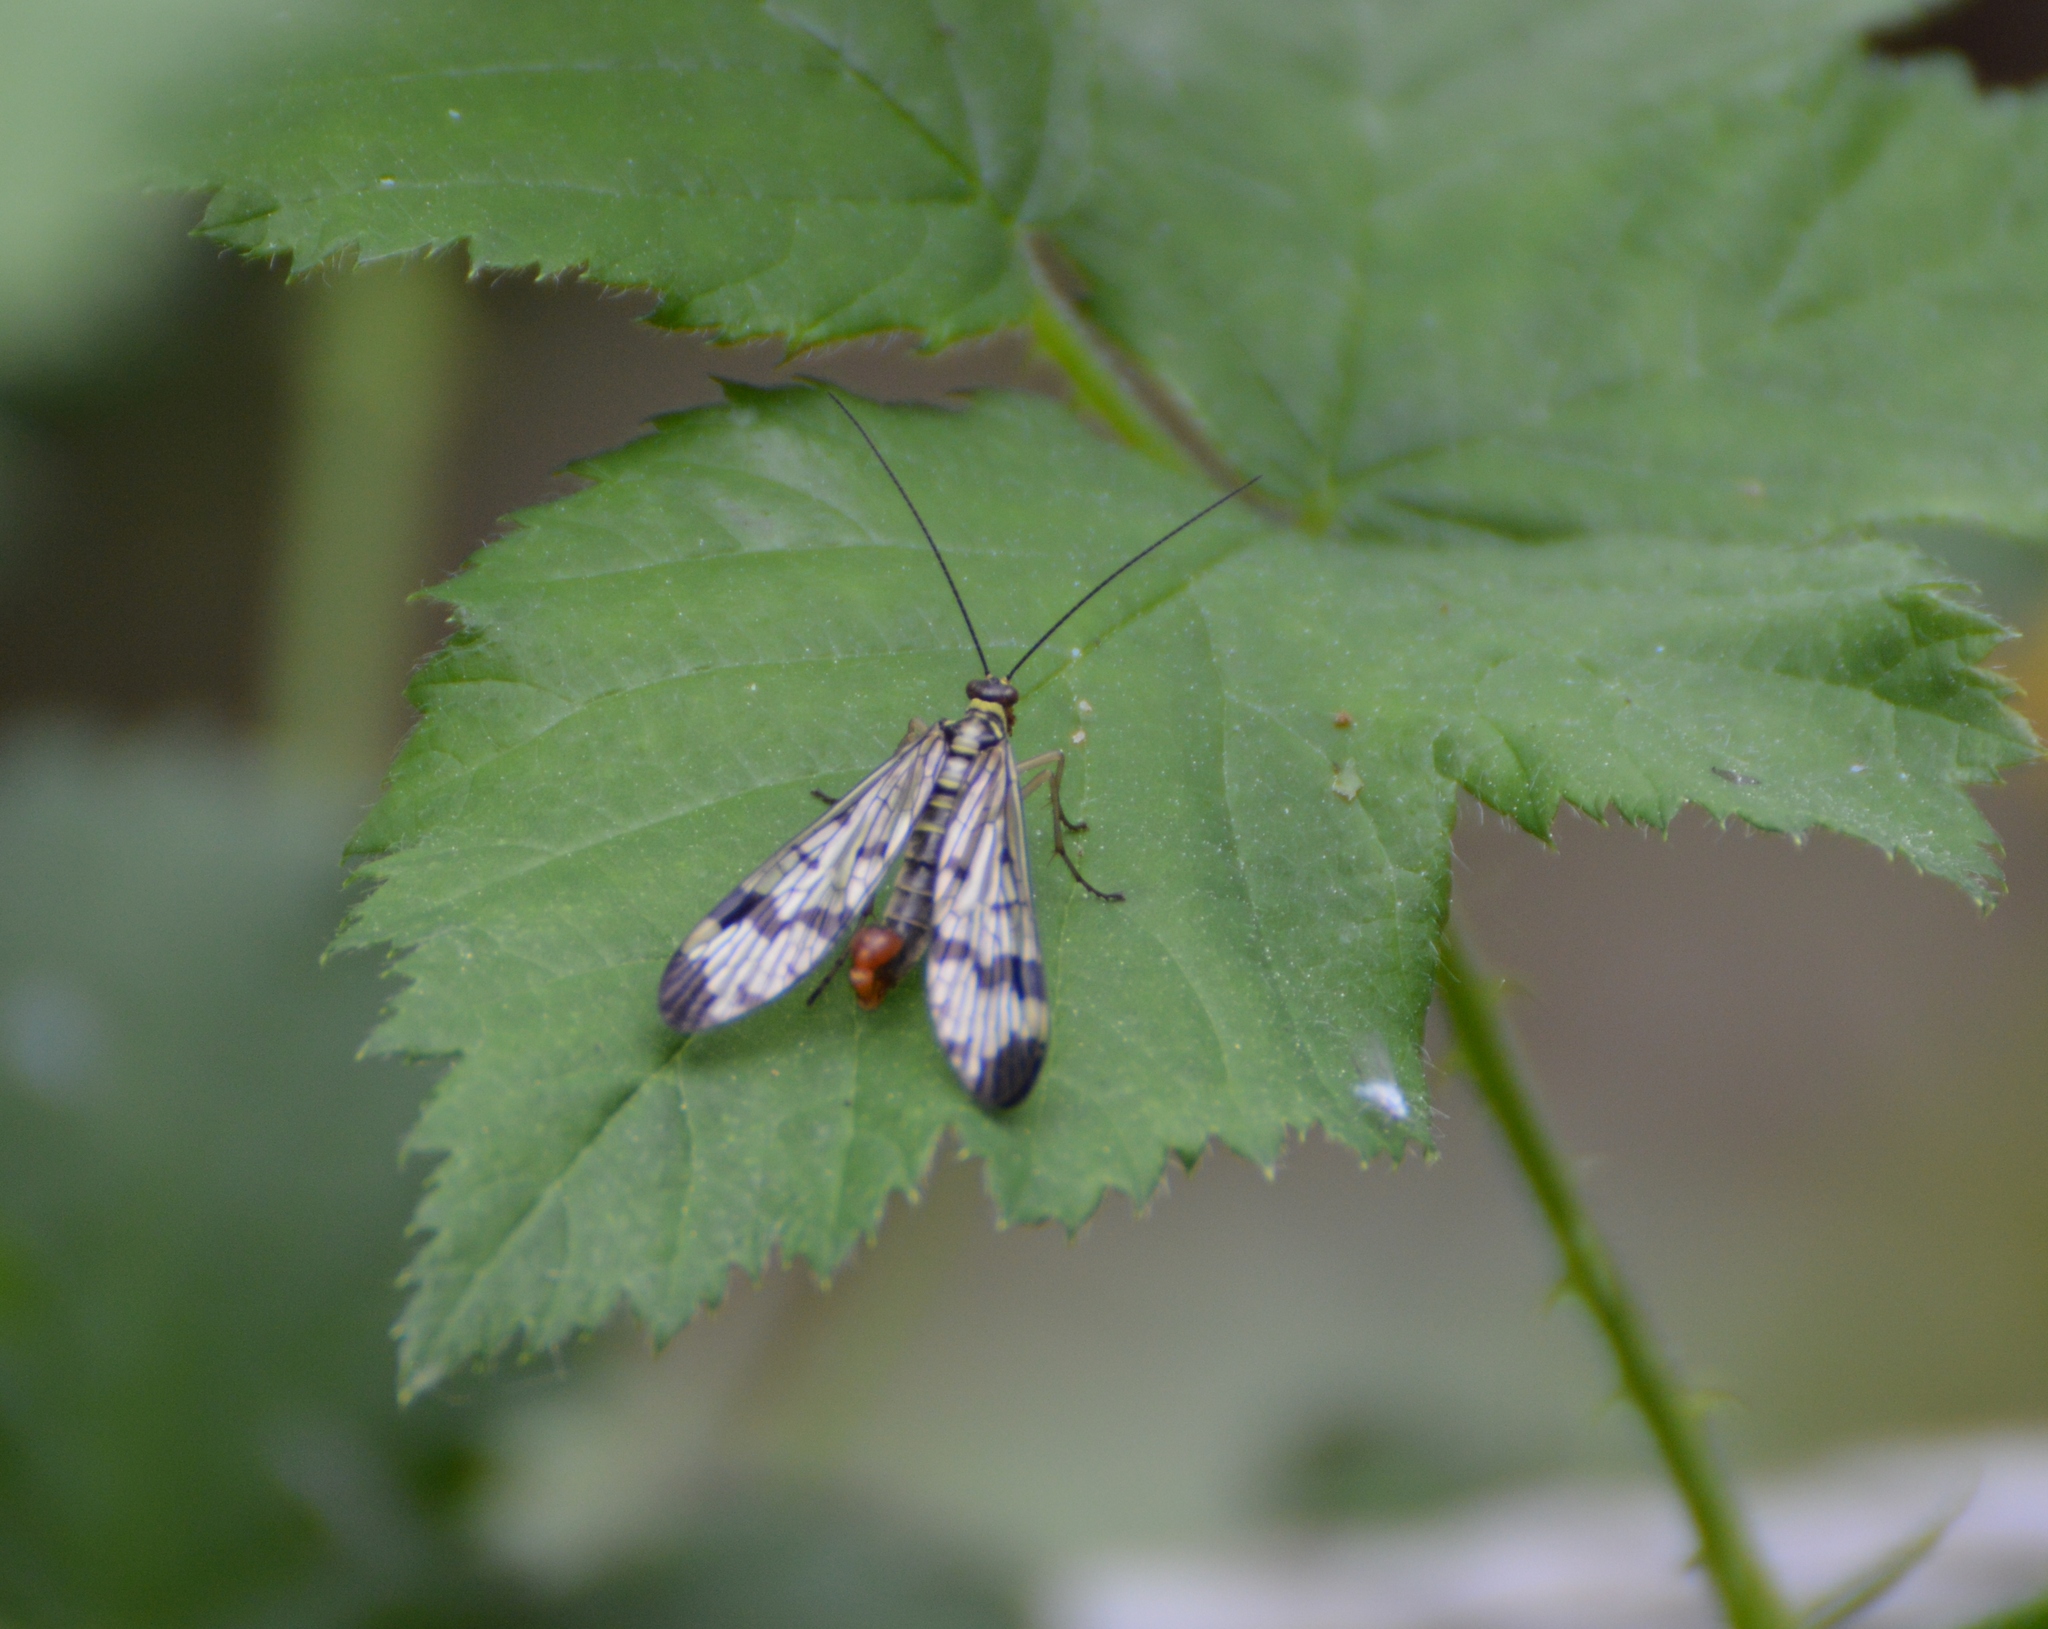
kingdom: Animalia
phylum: Arthropoda
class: Insecta
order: Mecoptera
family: Panorpidae
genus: Panorpa
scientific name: Panorpa
